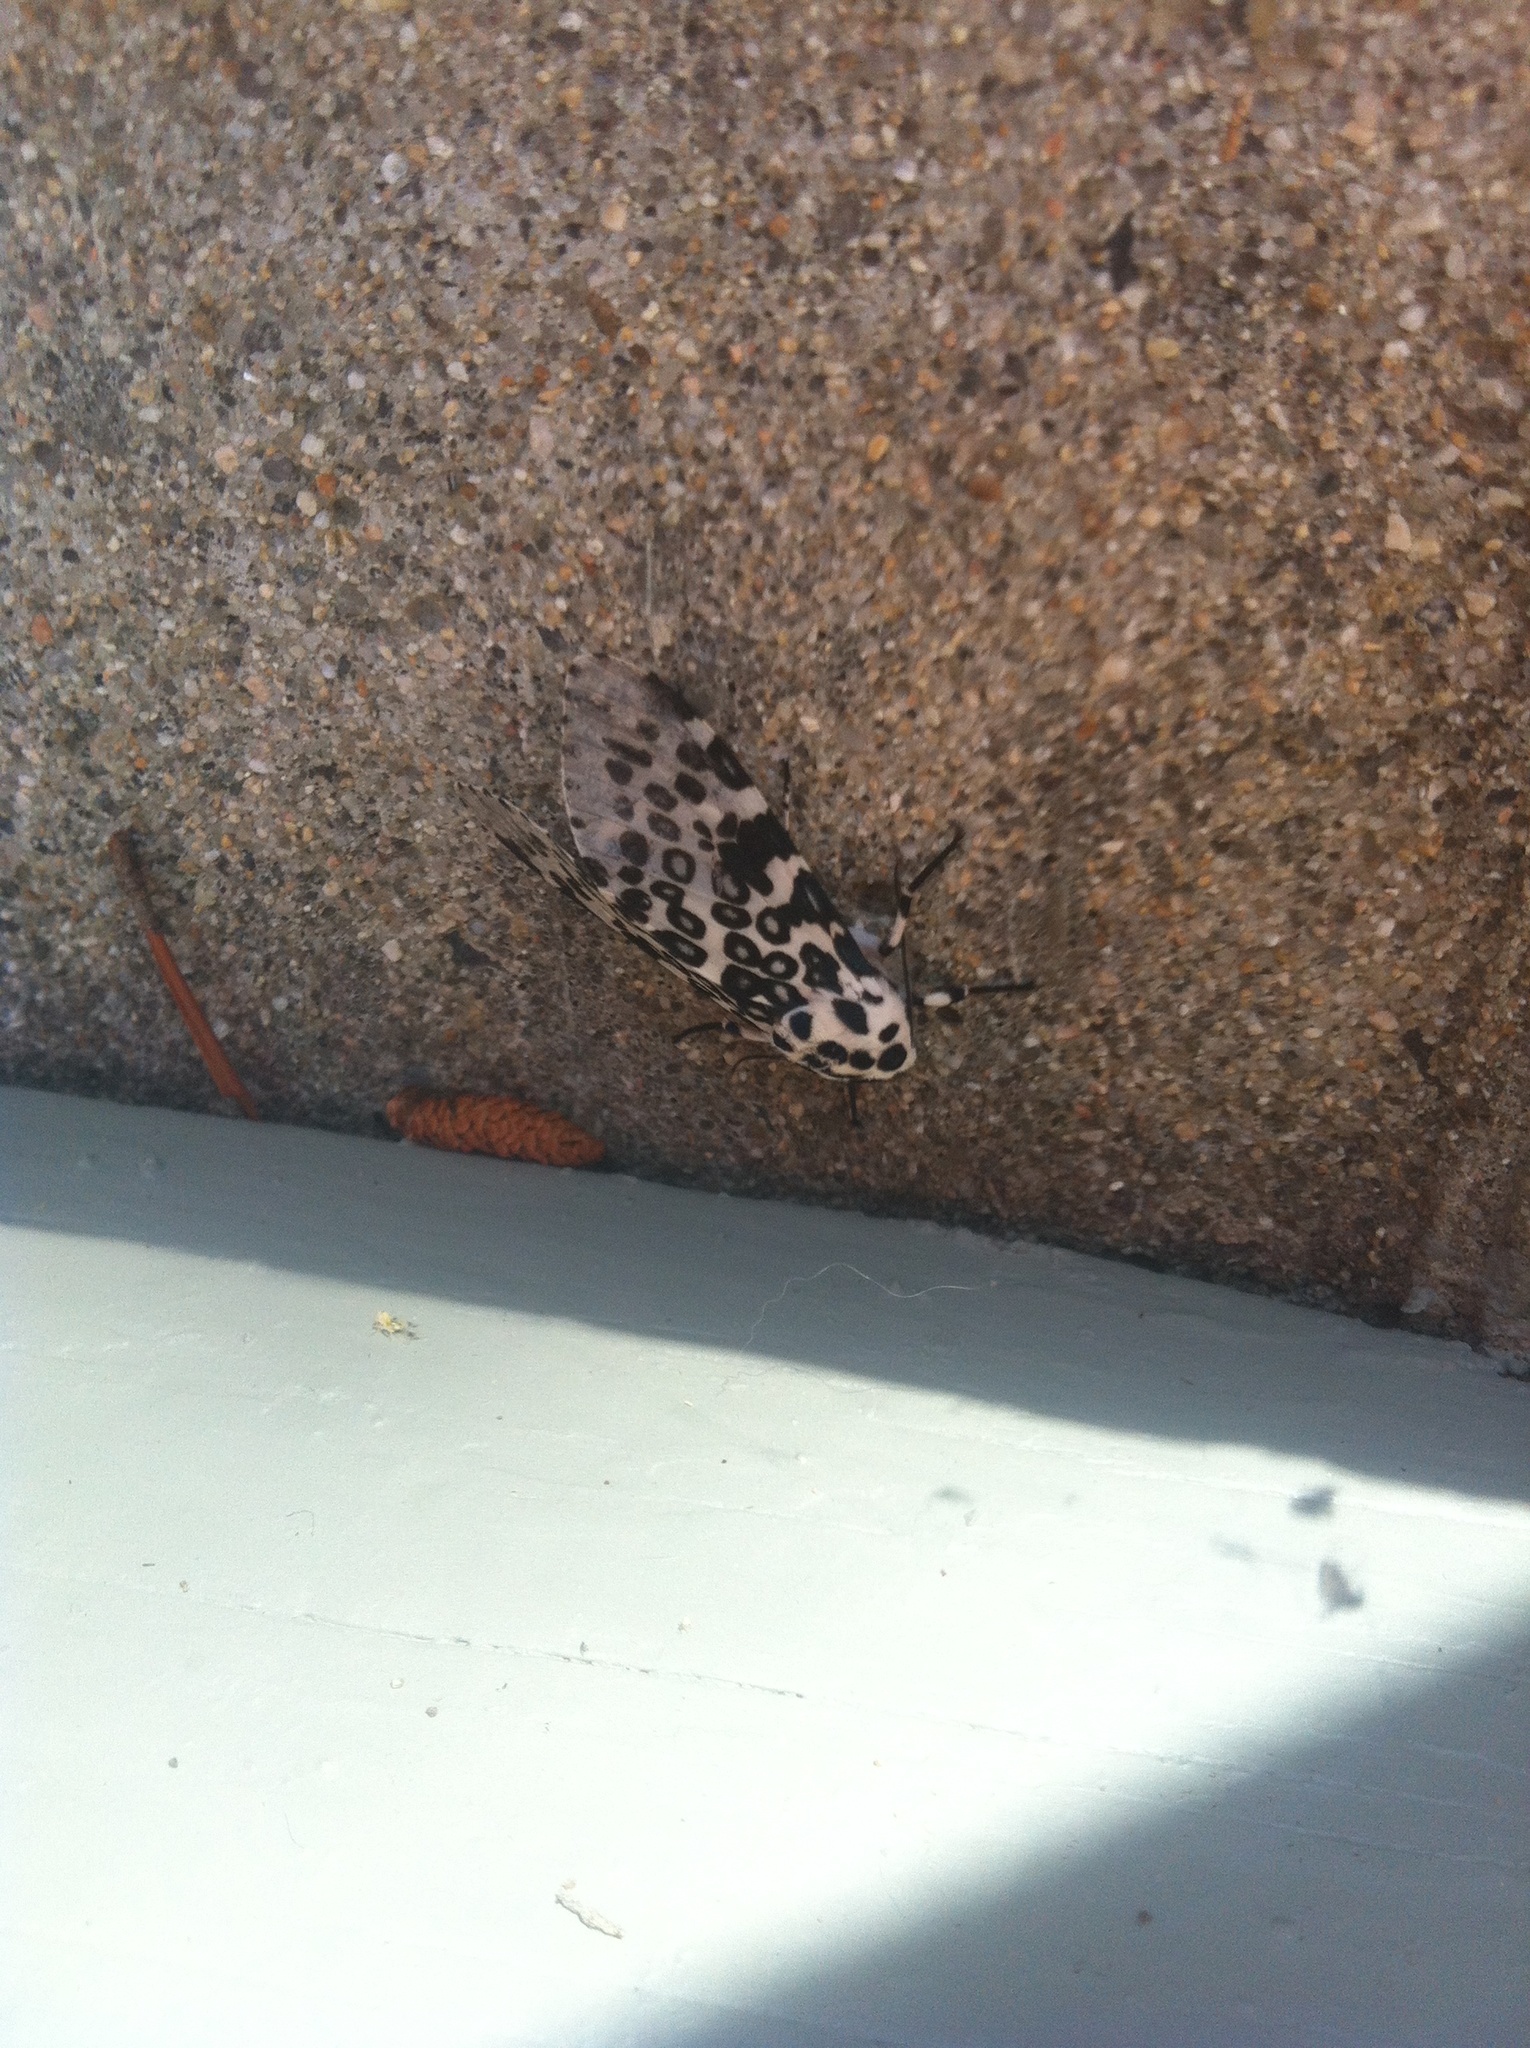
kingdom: Animalia
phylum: Arthropoda
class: Insecta
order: Lepidoptera
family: Erebidae
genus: Hypercompe
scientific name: Hypercompe scribonia
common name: Giant leopard moth
